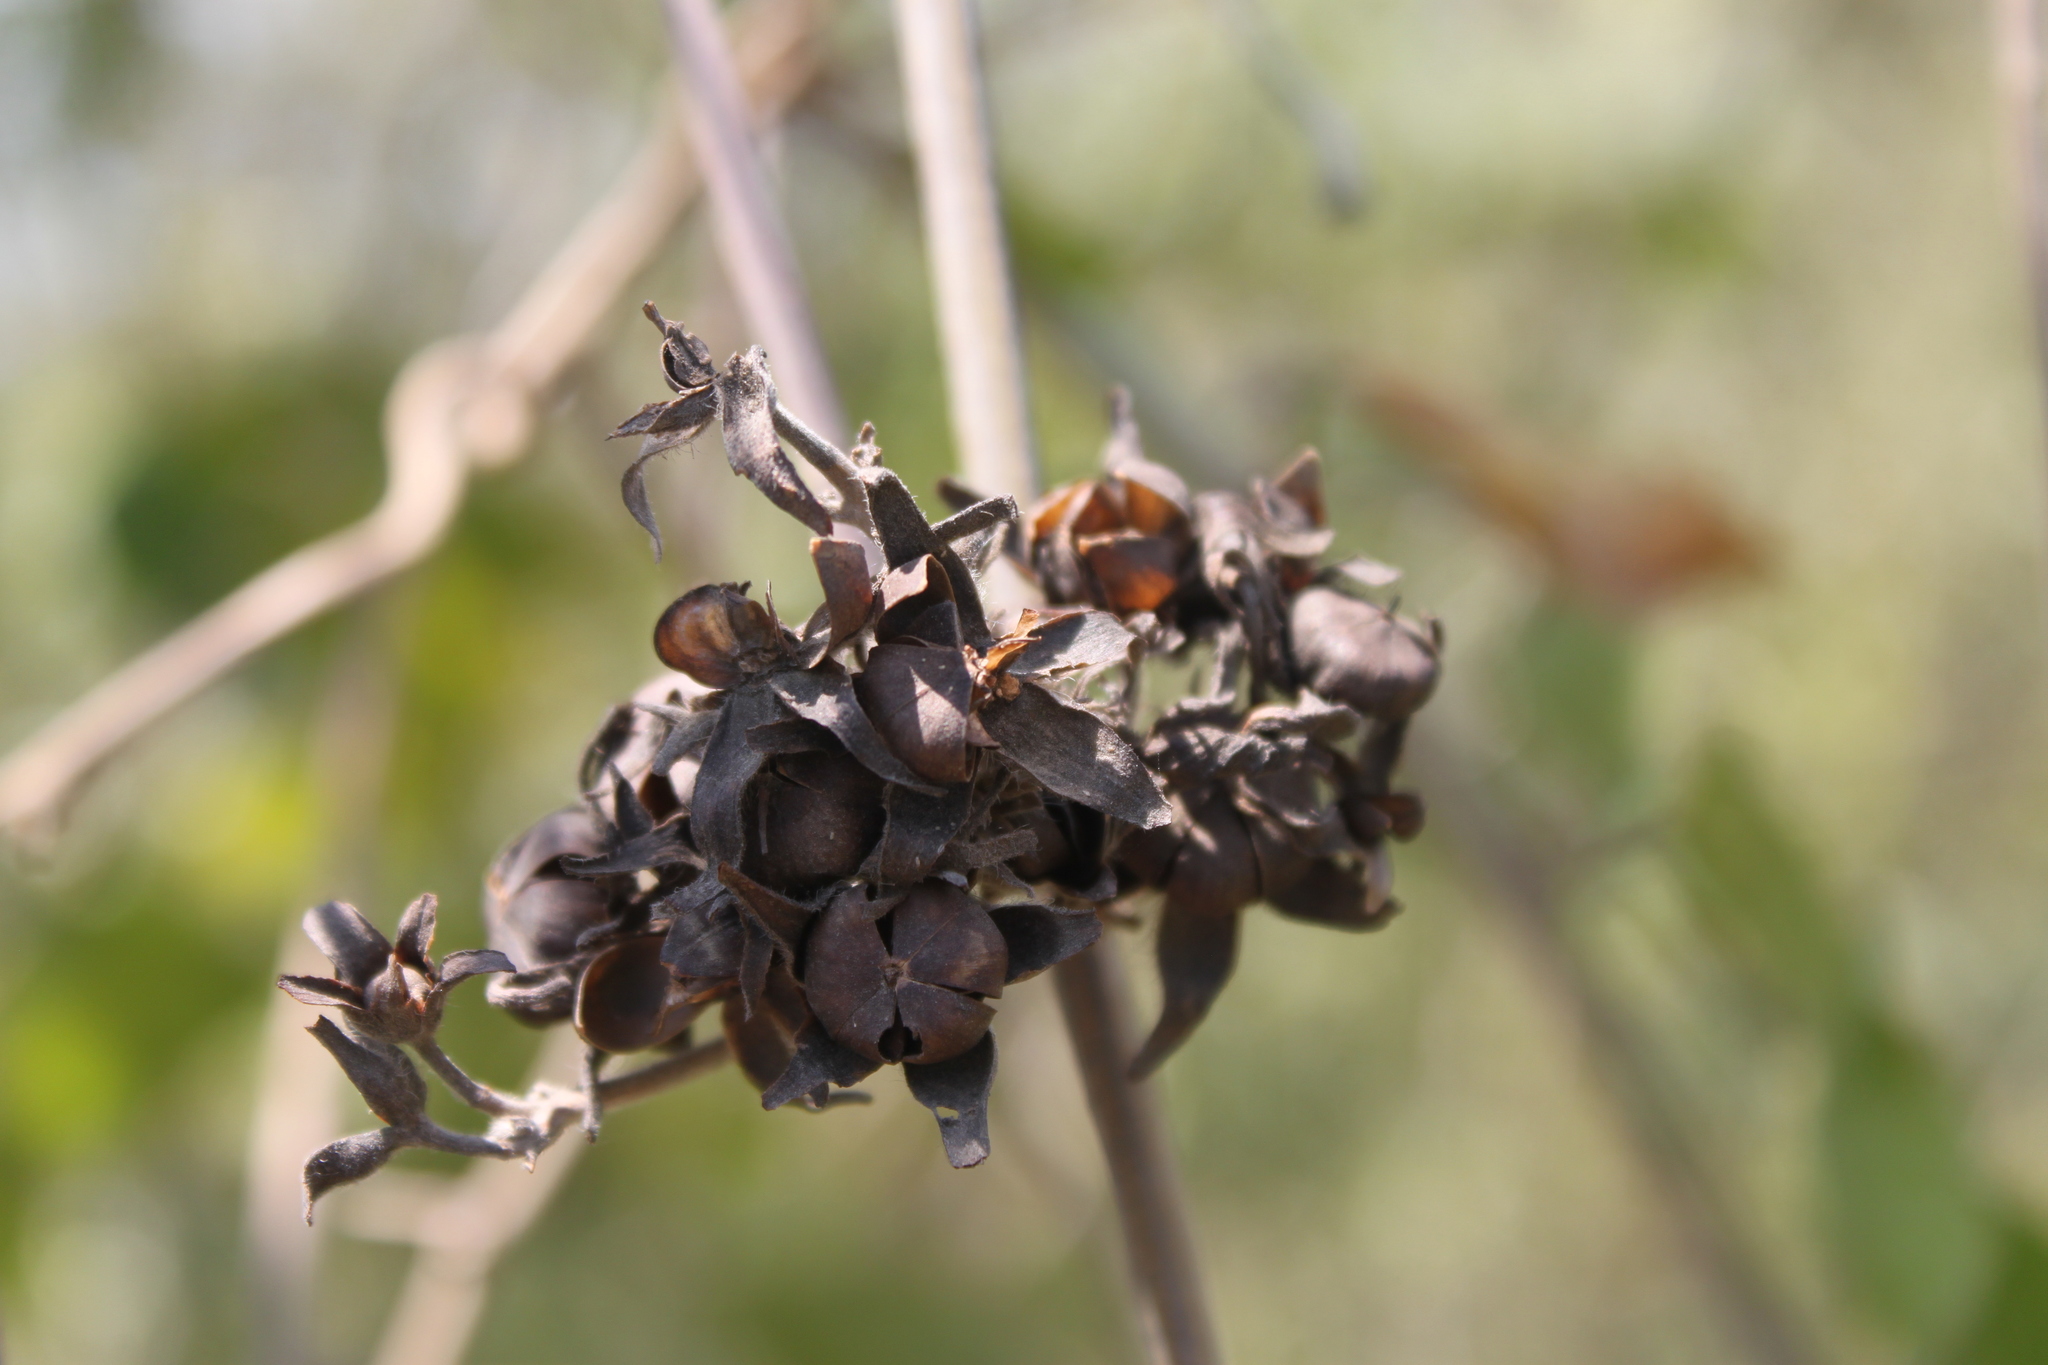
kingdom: Plantae
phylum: Tracheophyta
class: Magnoliopsida
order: Solanales
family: Convolvulaceae
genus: Camonea
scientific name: Camonea umbellata
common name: Hogvine
